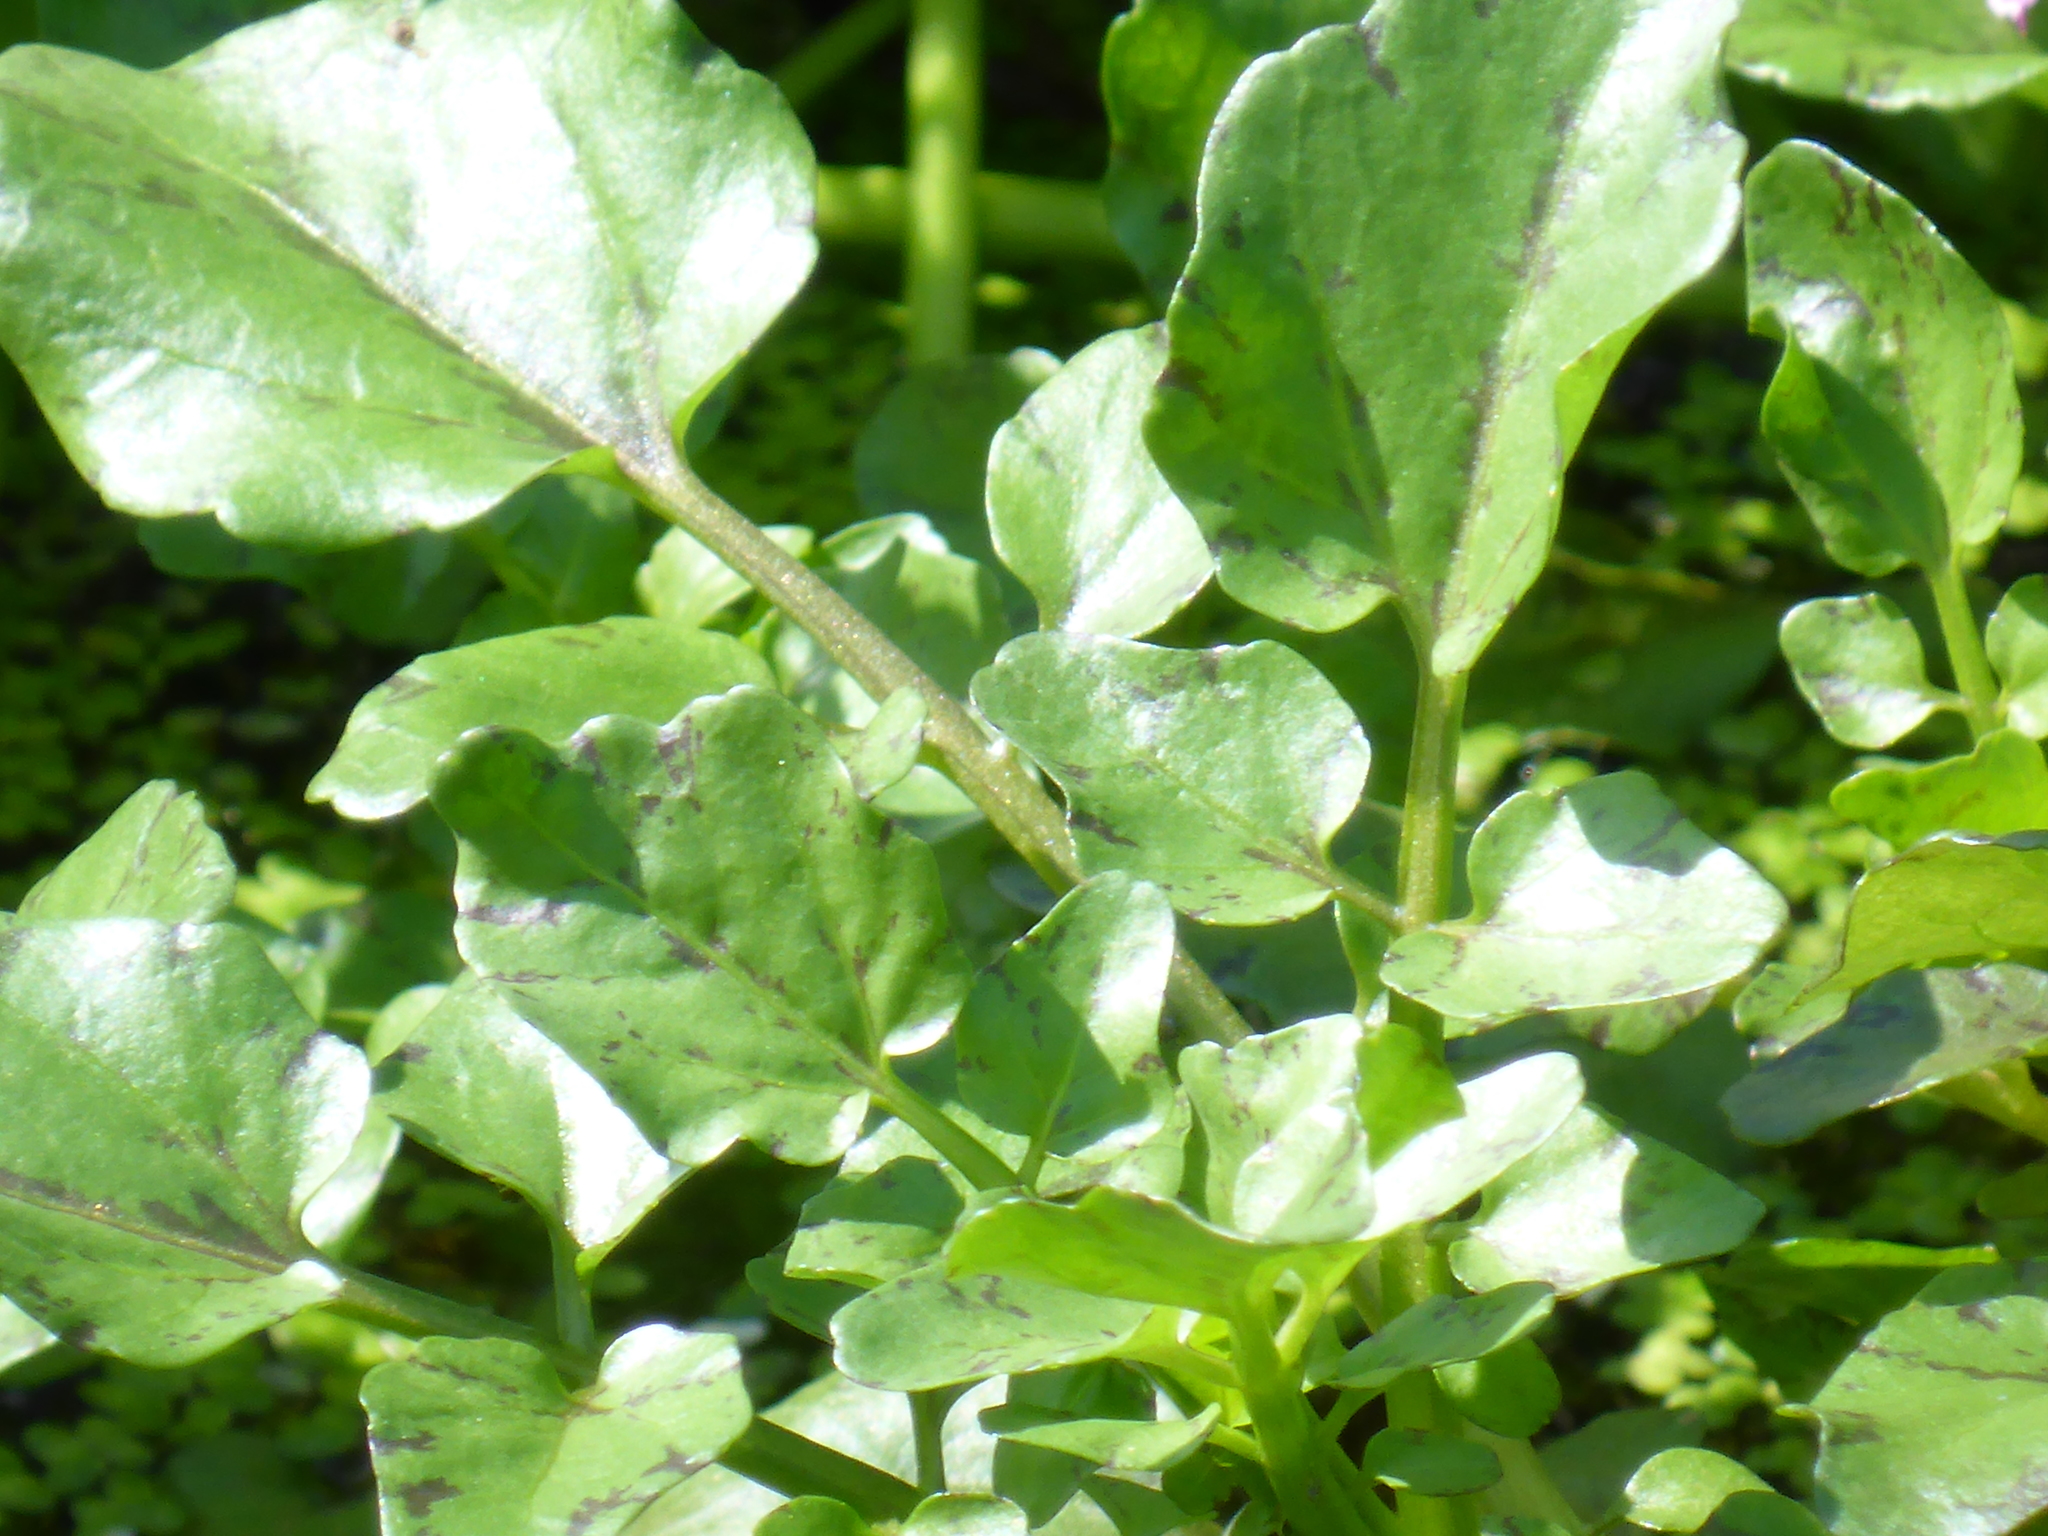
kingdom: Plantae
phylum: Tracheophyta
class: Magnoliopsida
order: Brassicales
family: Brassicaceae
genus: Nasturtium
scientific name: Nasturtium officinale
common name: Watercress
